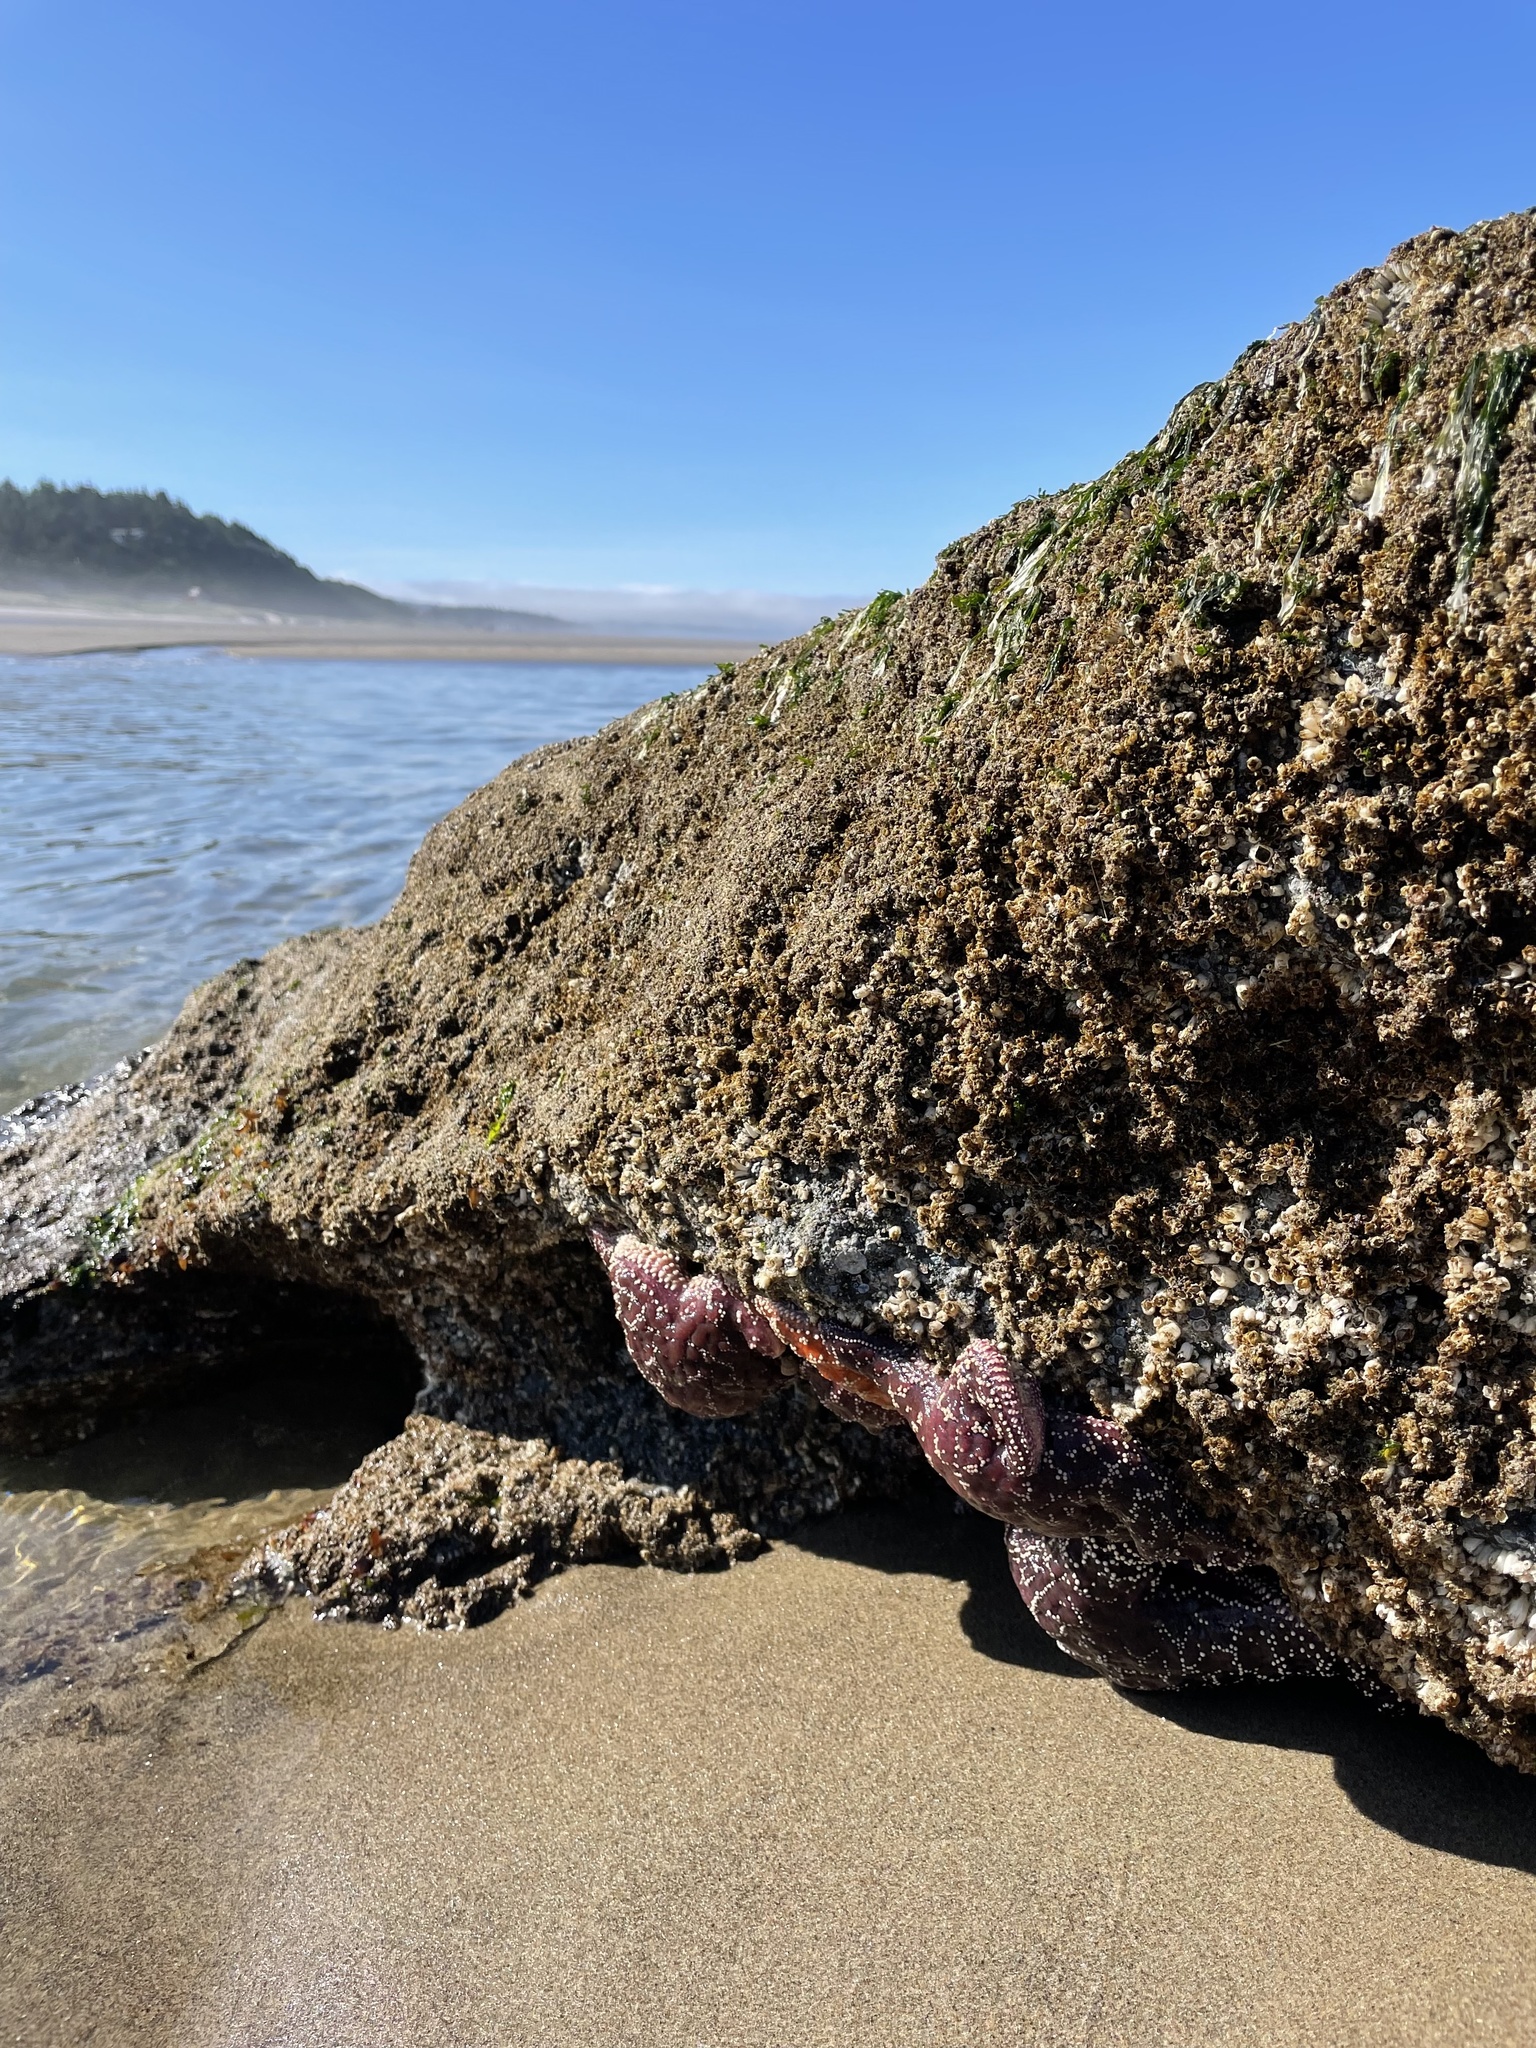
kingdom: Animalia
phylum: Echinodermata
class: Asteroidea
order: Forcipulatida
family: Asteriidae
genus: Pisaster
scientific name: Pisaster ochraceus
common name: Ochre stars
